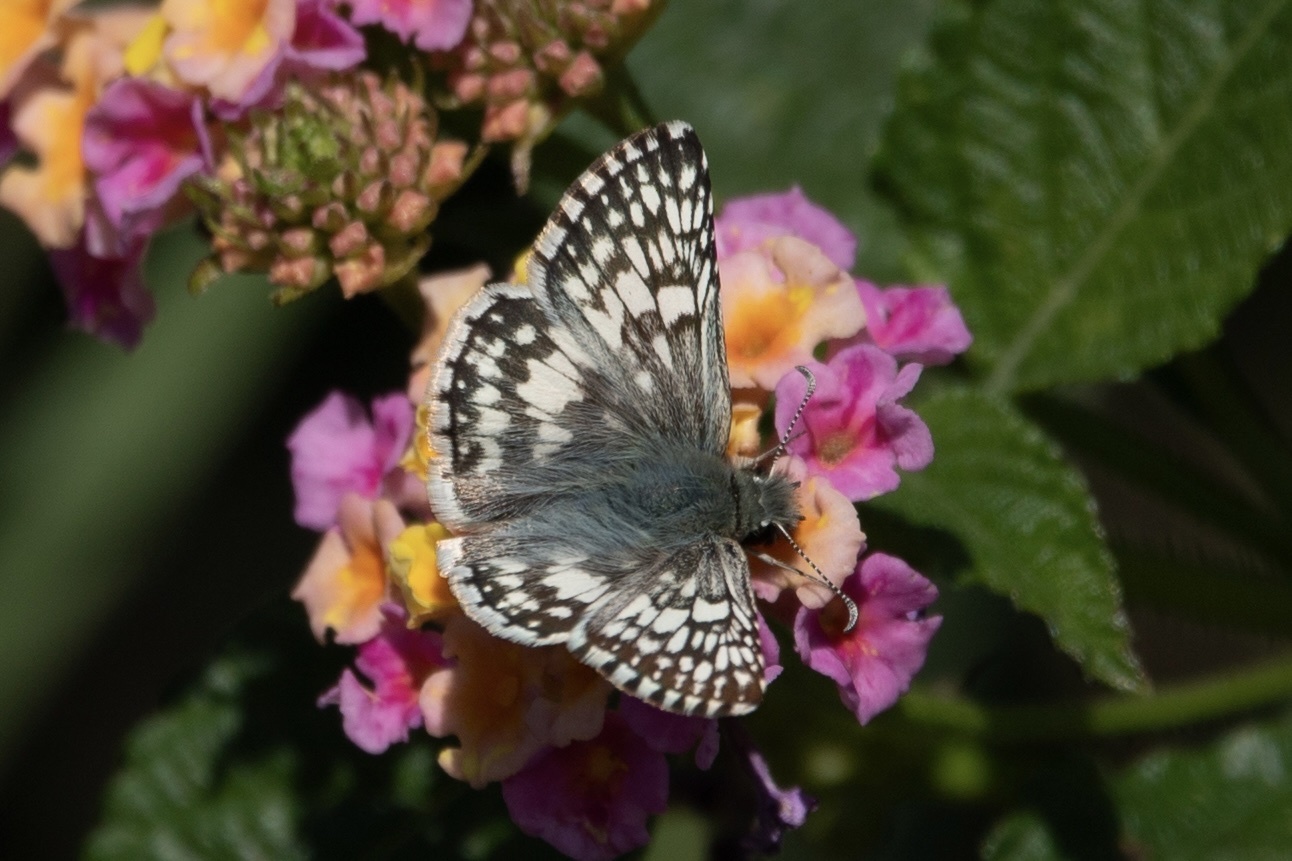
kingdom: Animalia
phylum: Arthropoda
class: Insecta
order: Lepidoptera
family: Hesperiidae
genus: Burnsius
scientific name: Burnsius
